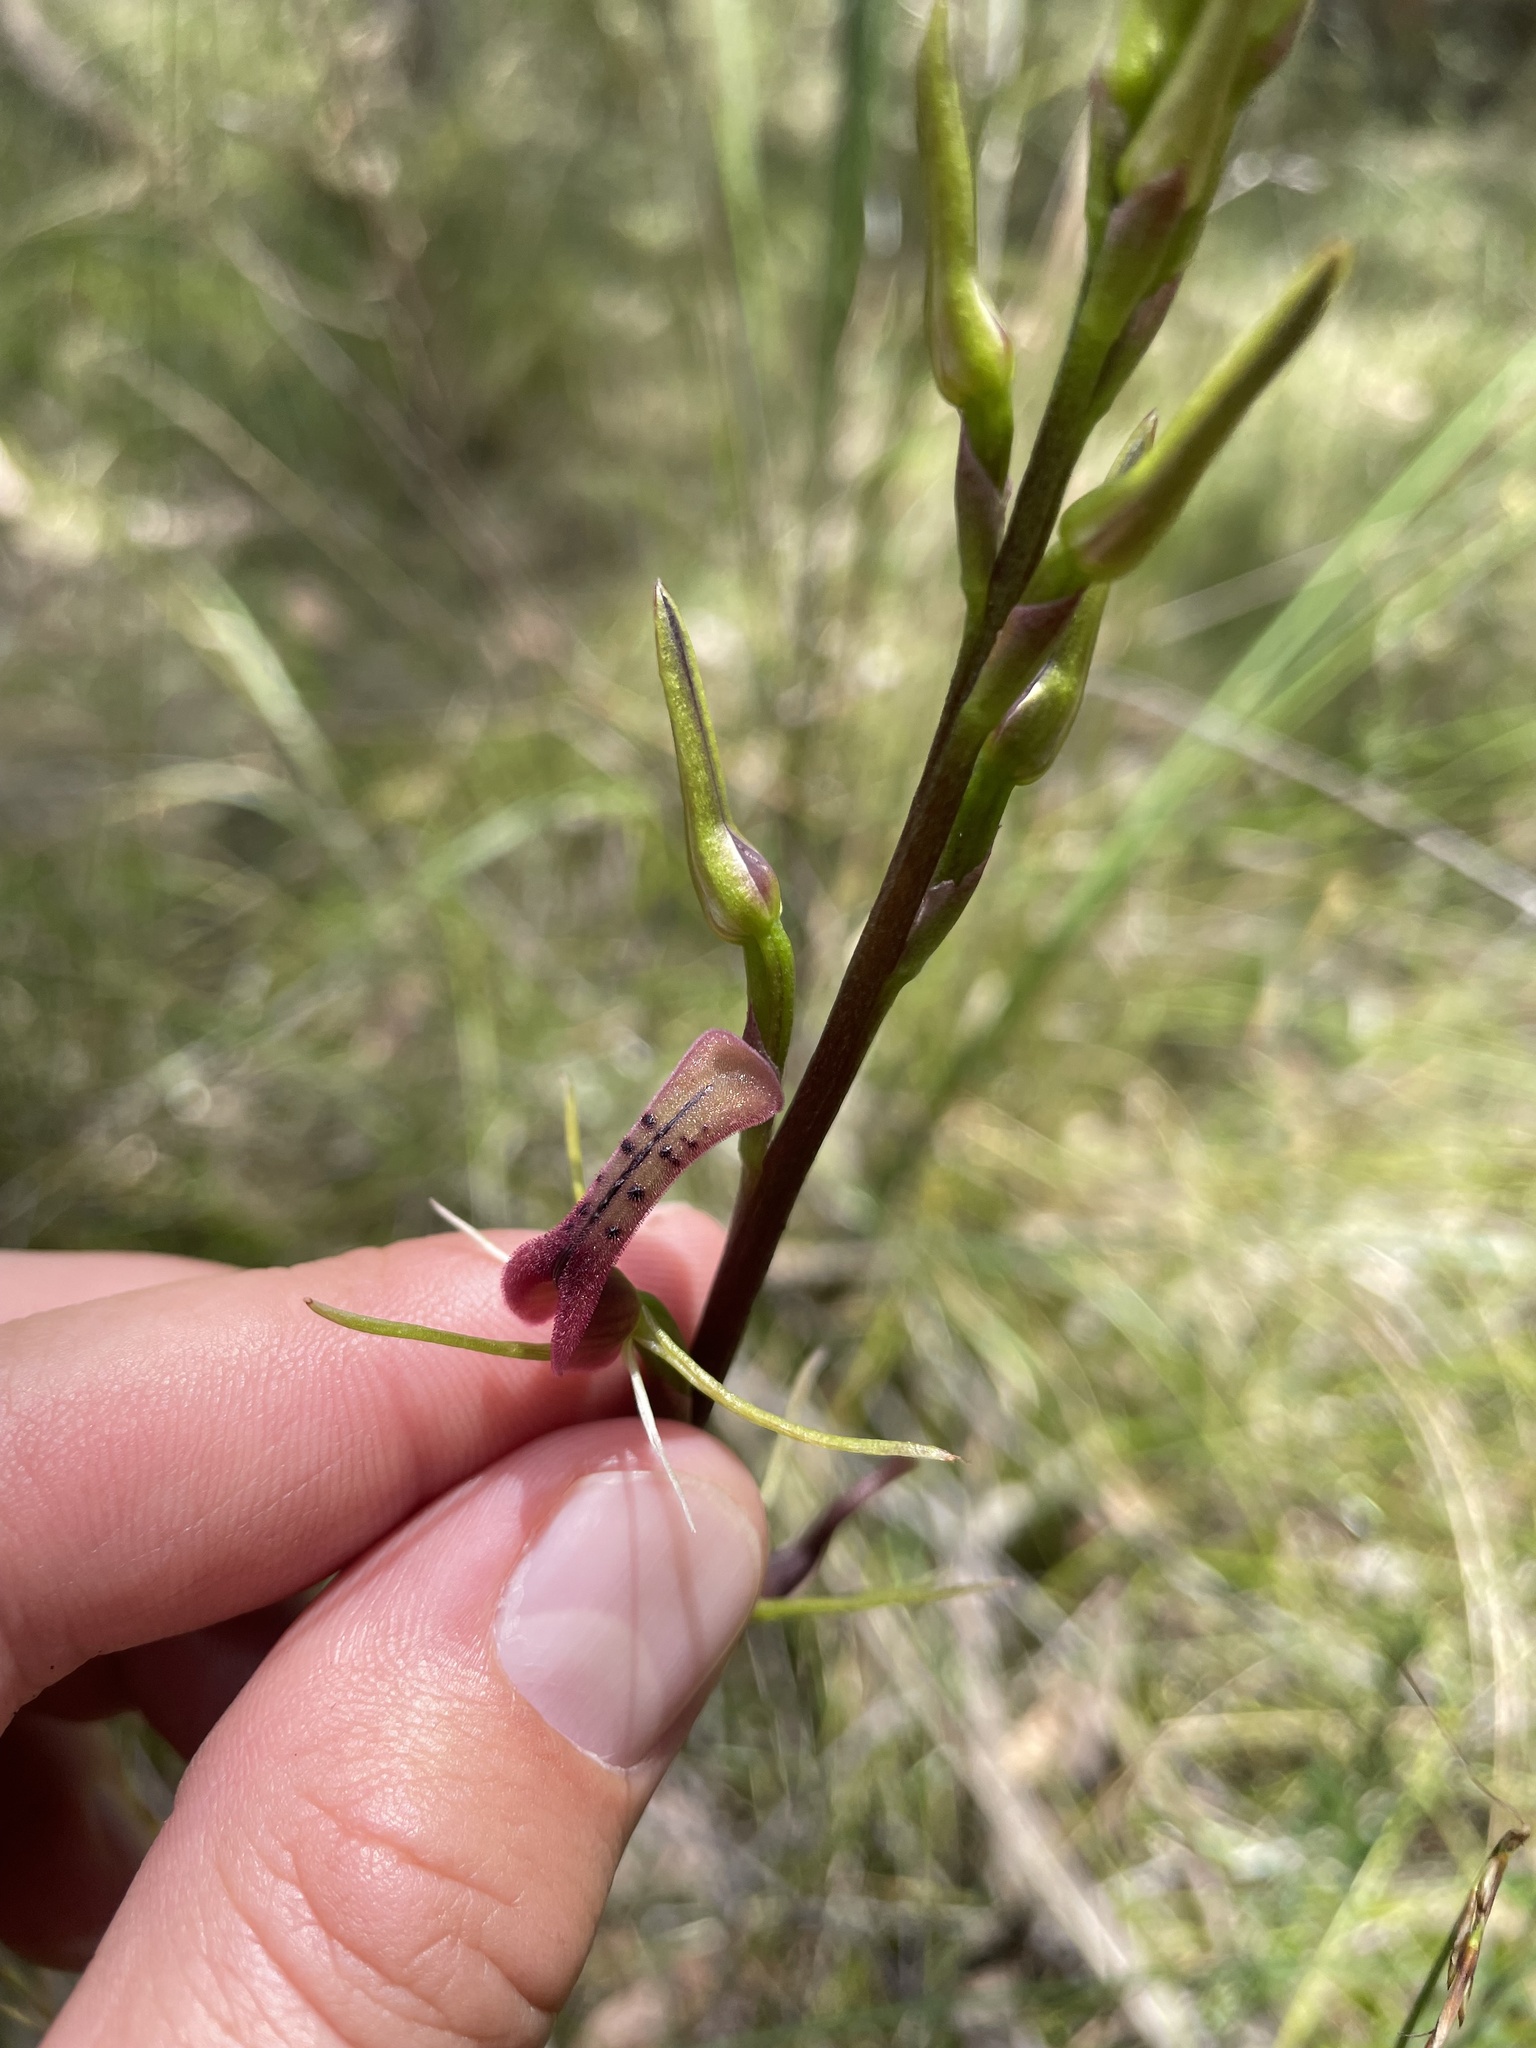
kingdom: Plantae
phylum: Tracheophyta
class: Liliopsida
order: Asparagales
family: Orchidaceae
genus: Cryptostylis
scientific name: Cryptostylis leptochila
